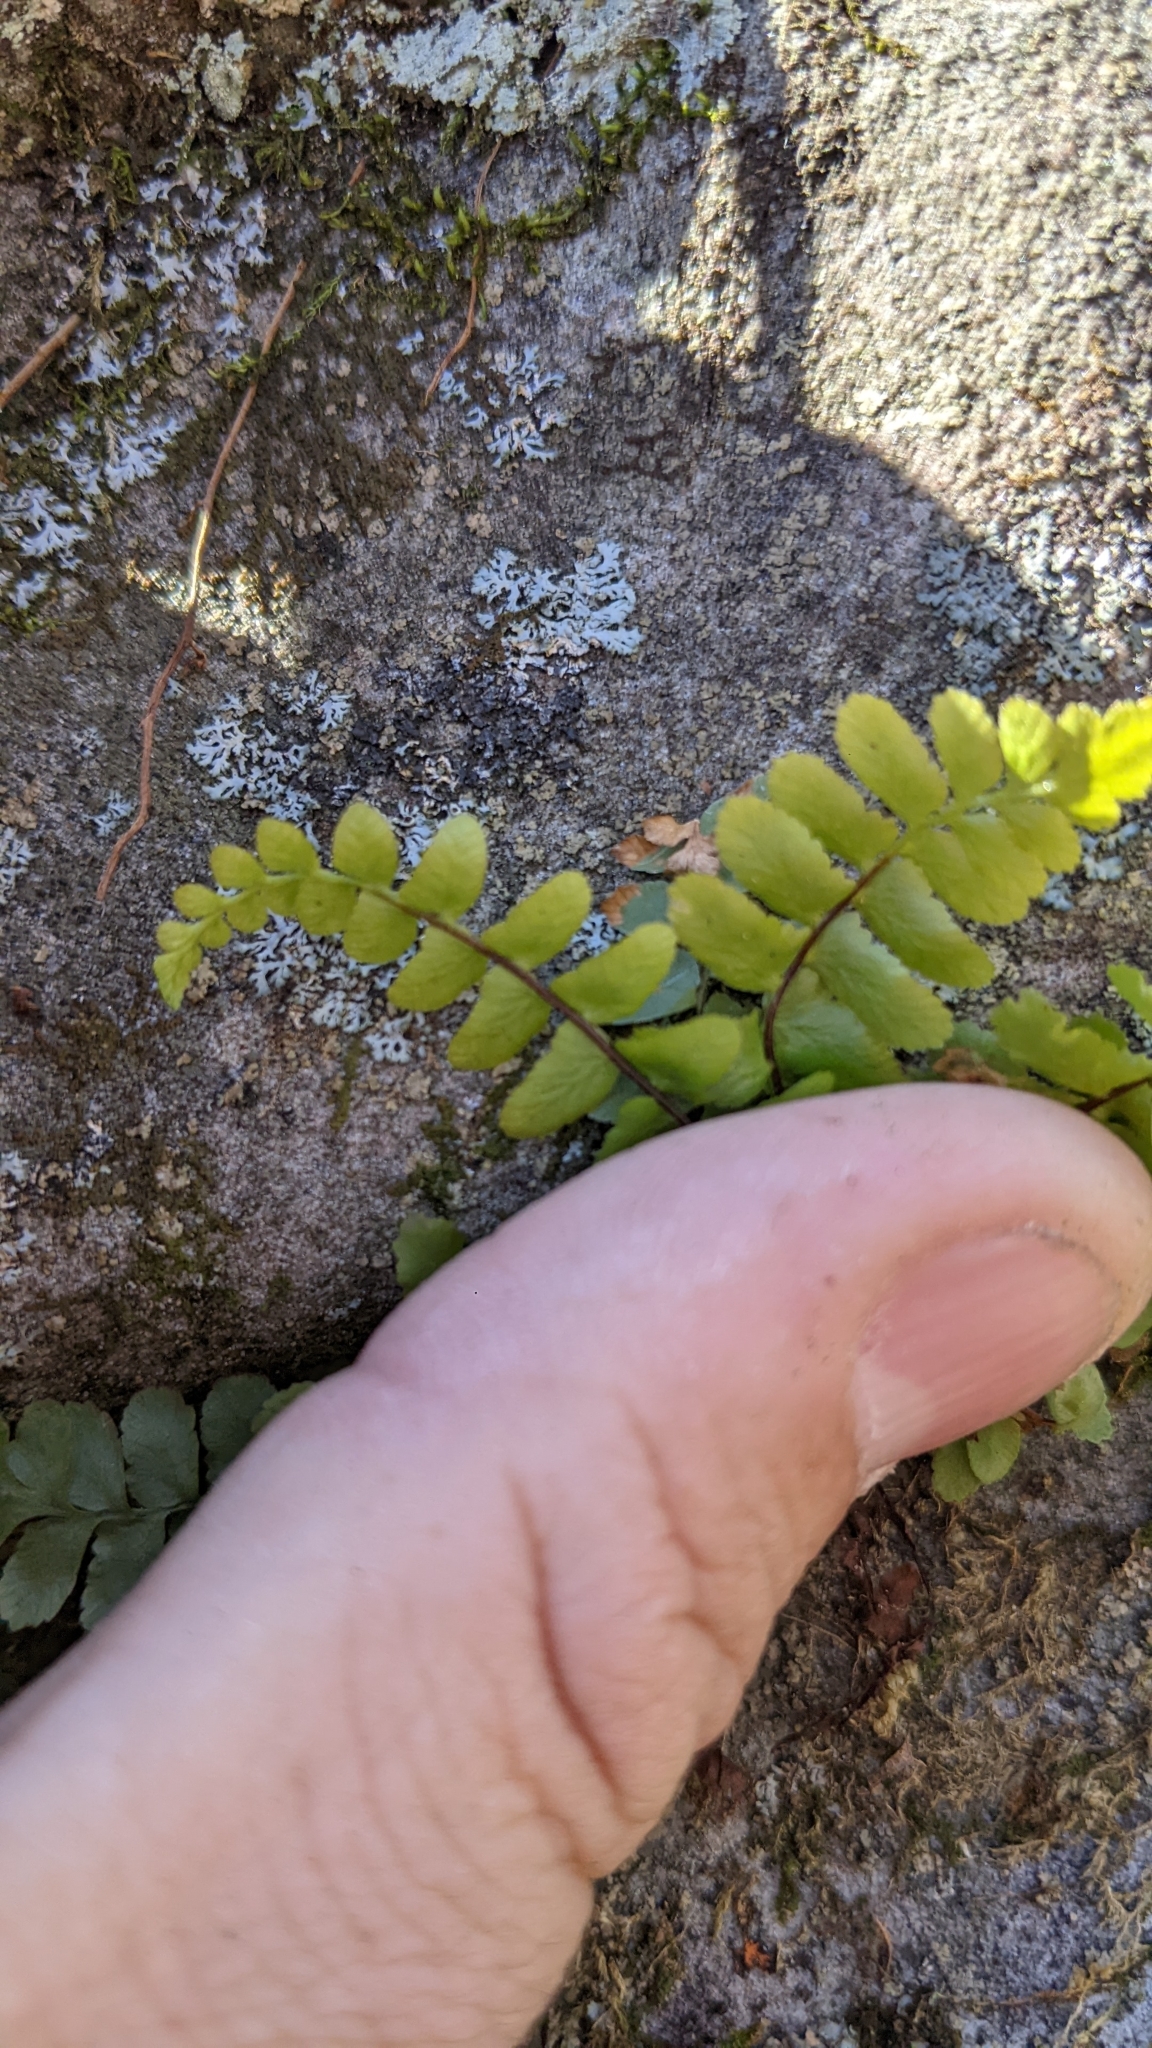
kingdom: Plantae
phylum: Tracheophyta
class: Polypodiopsida
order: Polypodiales
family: Aspleniaceae
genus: Asplenium
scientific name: Asplenium platyneuron
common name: Ebony spleenwort
